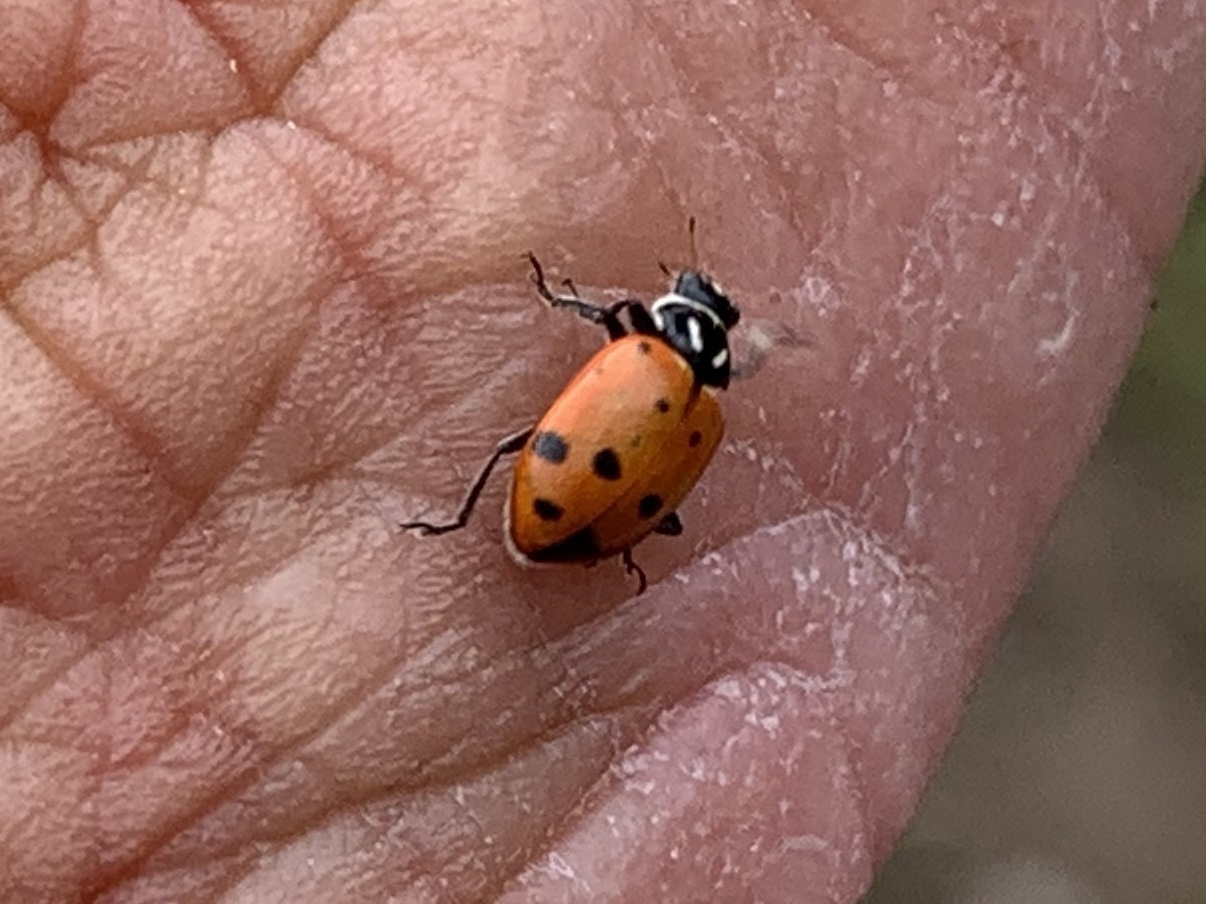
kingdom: Animalia
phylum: Arthropoda
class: Insecta
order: Coleoptera
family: Coccinellidae
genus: Hippodamia
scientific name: Hippodamia convergens
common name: Convergent lady beetle
